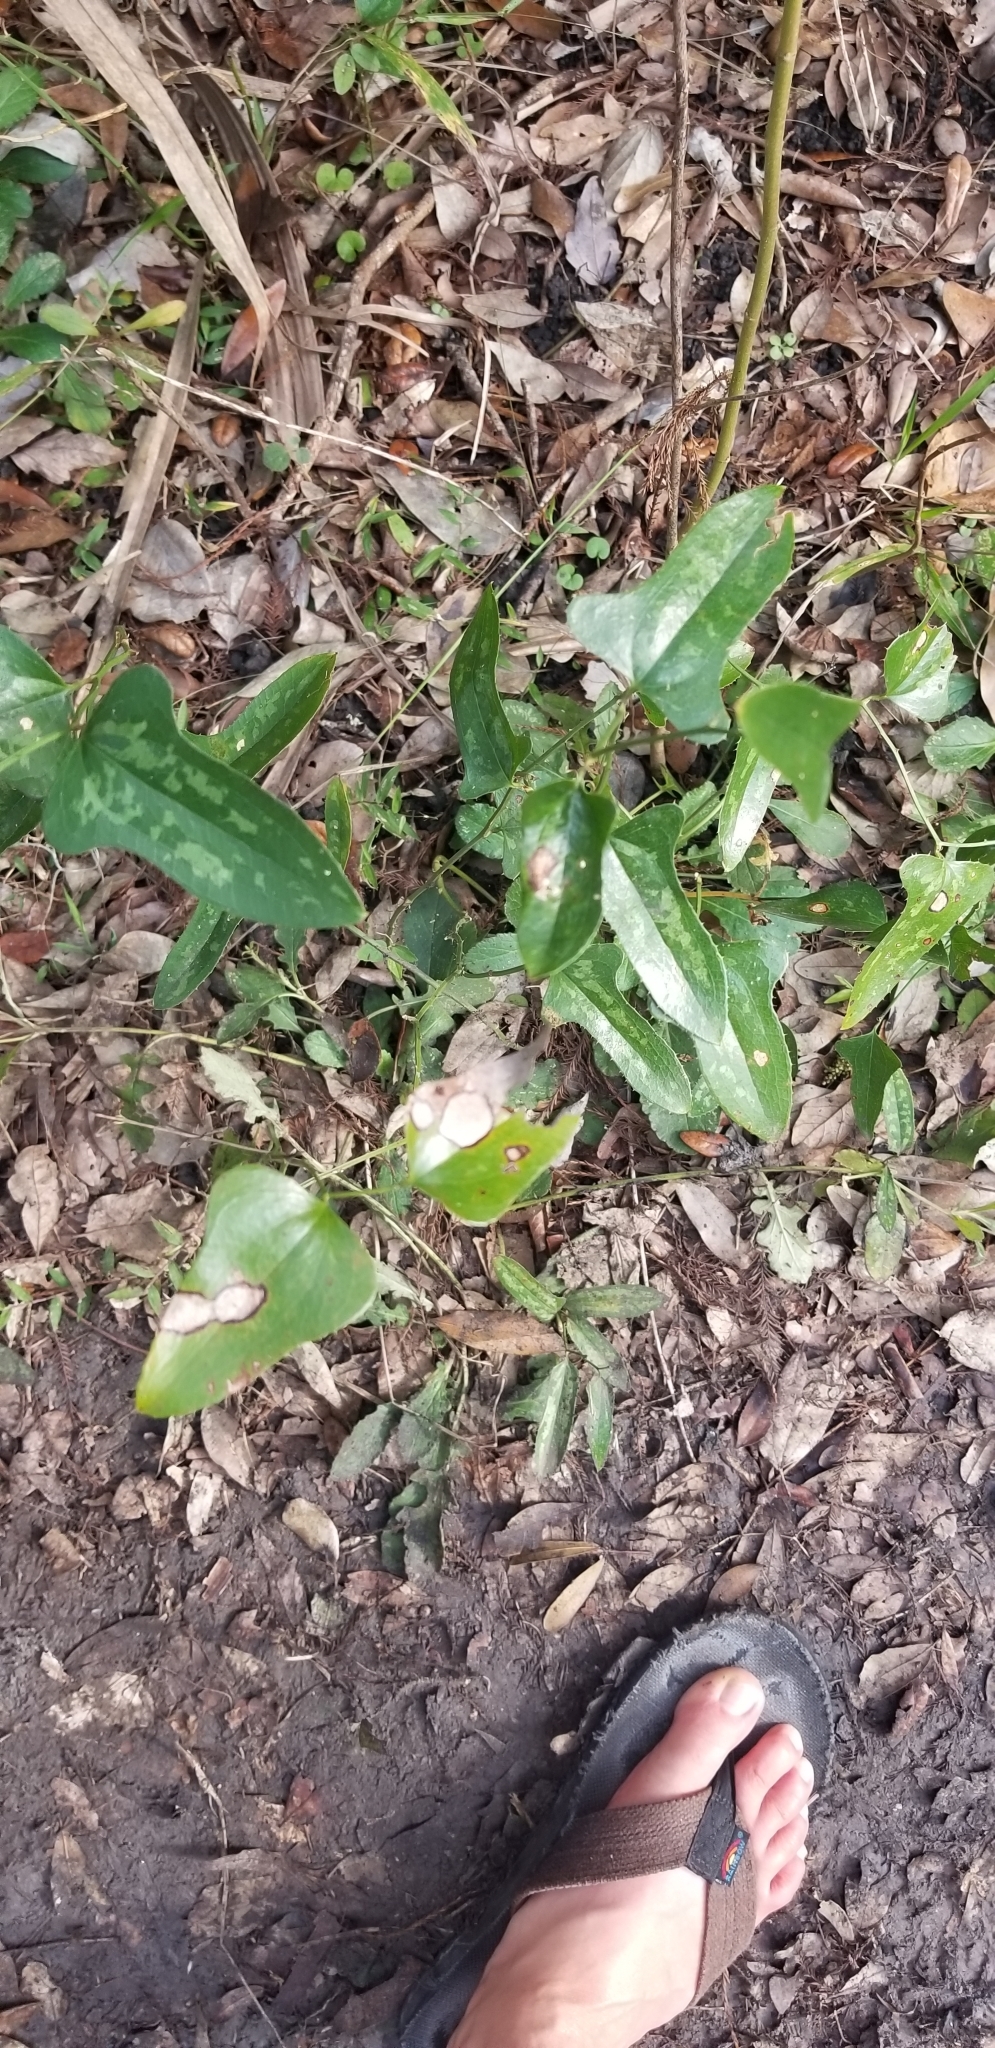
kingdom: Plantae
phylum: Tracheophyta
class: Liliopsida
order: Liliales
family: Smilacaceae
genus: Smilax
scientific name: Smilax bona-nox
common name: Catbrier
